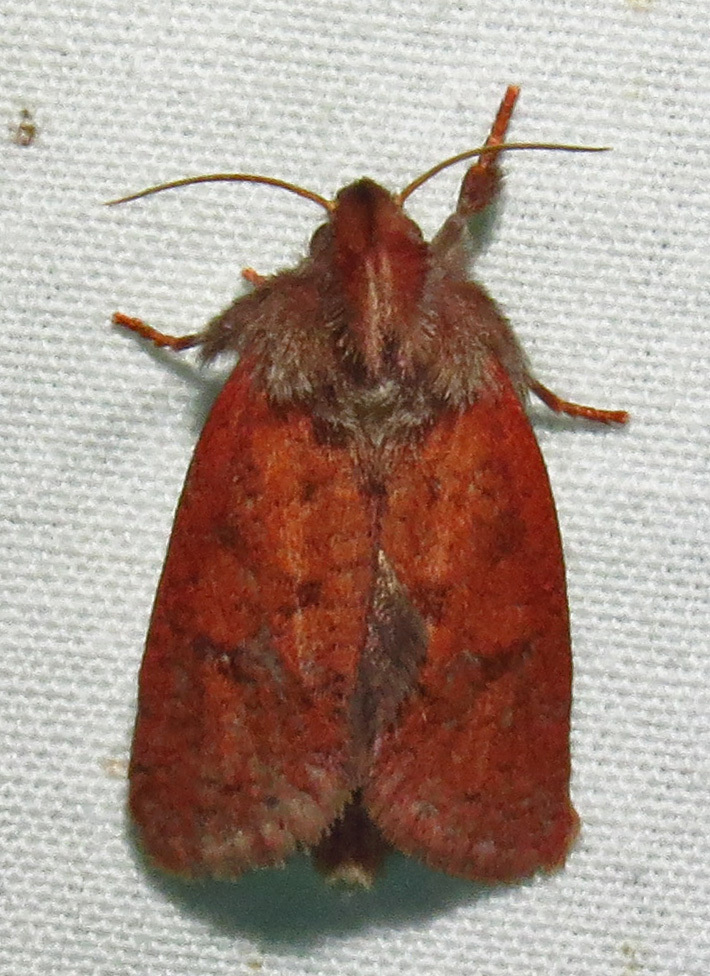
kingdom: Animalia
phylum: Arthropoda
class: Insecta
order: Lepidoptera
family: Tineidae
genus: Acrolophus
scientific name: Acrolophus plumifrontella
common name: Eastern grass tubeworm moth
